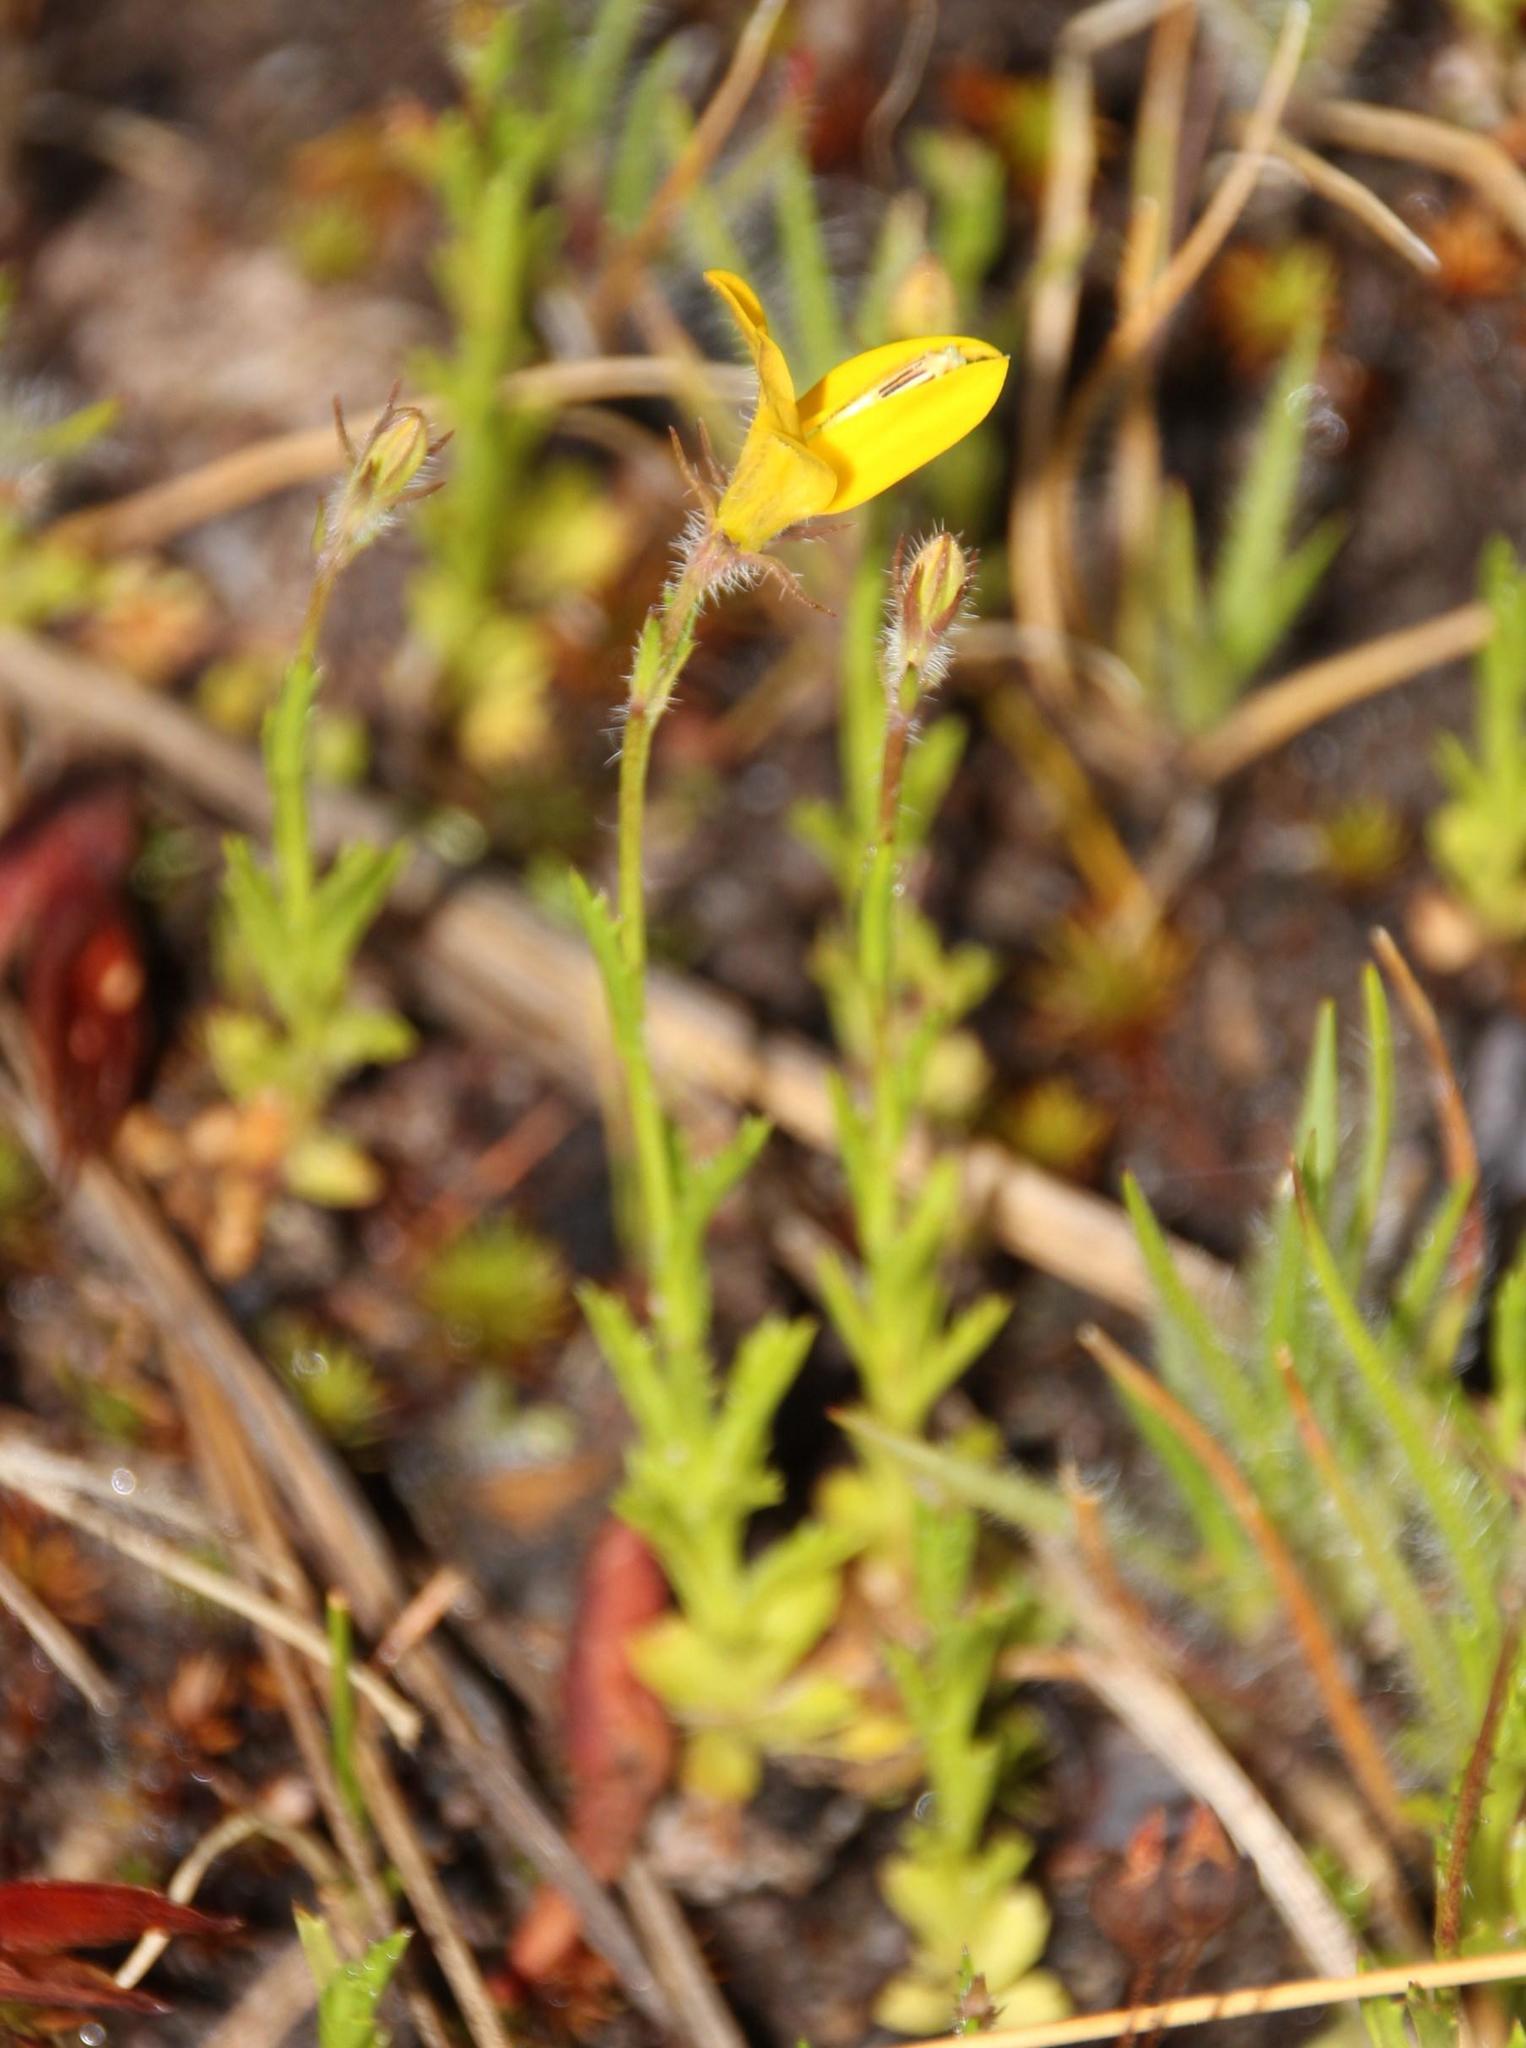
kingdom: Plantae
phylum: Tracheophyta
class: Magnoliopsida
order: Asterales
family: Campanulaceae
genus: Monopsis
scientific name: Monopsis lutea
